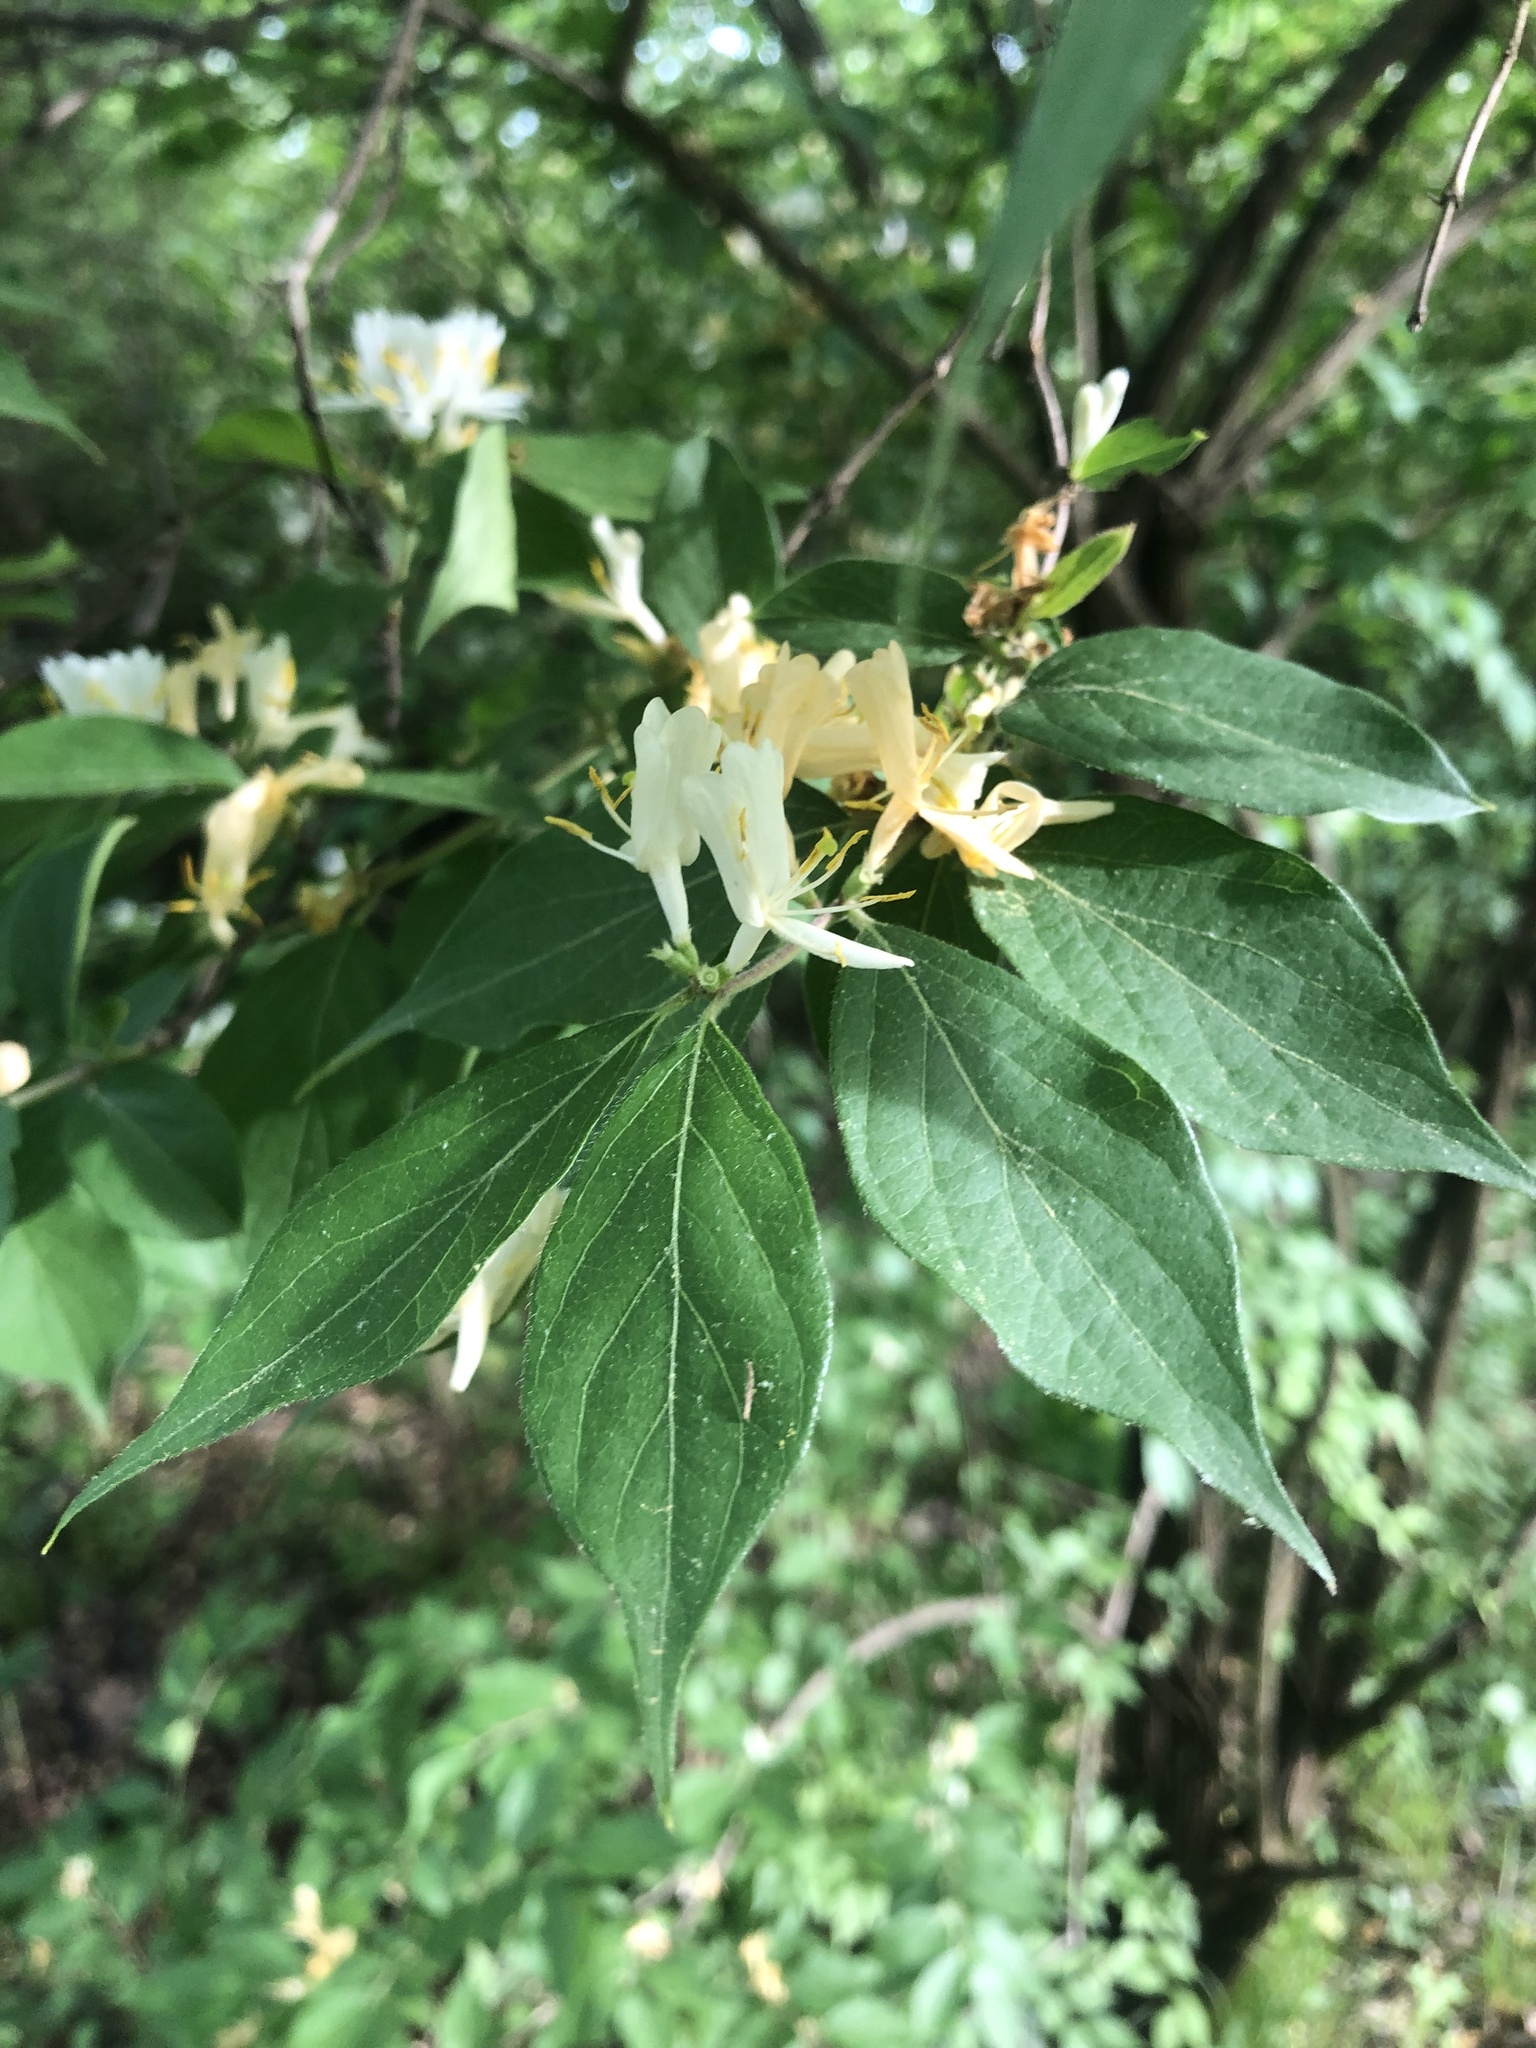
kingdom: Plantae
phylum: Tracheophyta
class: Magnoliopsida
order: Dipsacales
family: Caprifoliaceae
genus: Lonicera
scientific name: Lonicera maackii
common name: Amur honeysuckle
